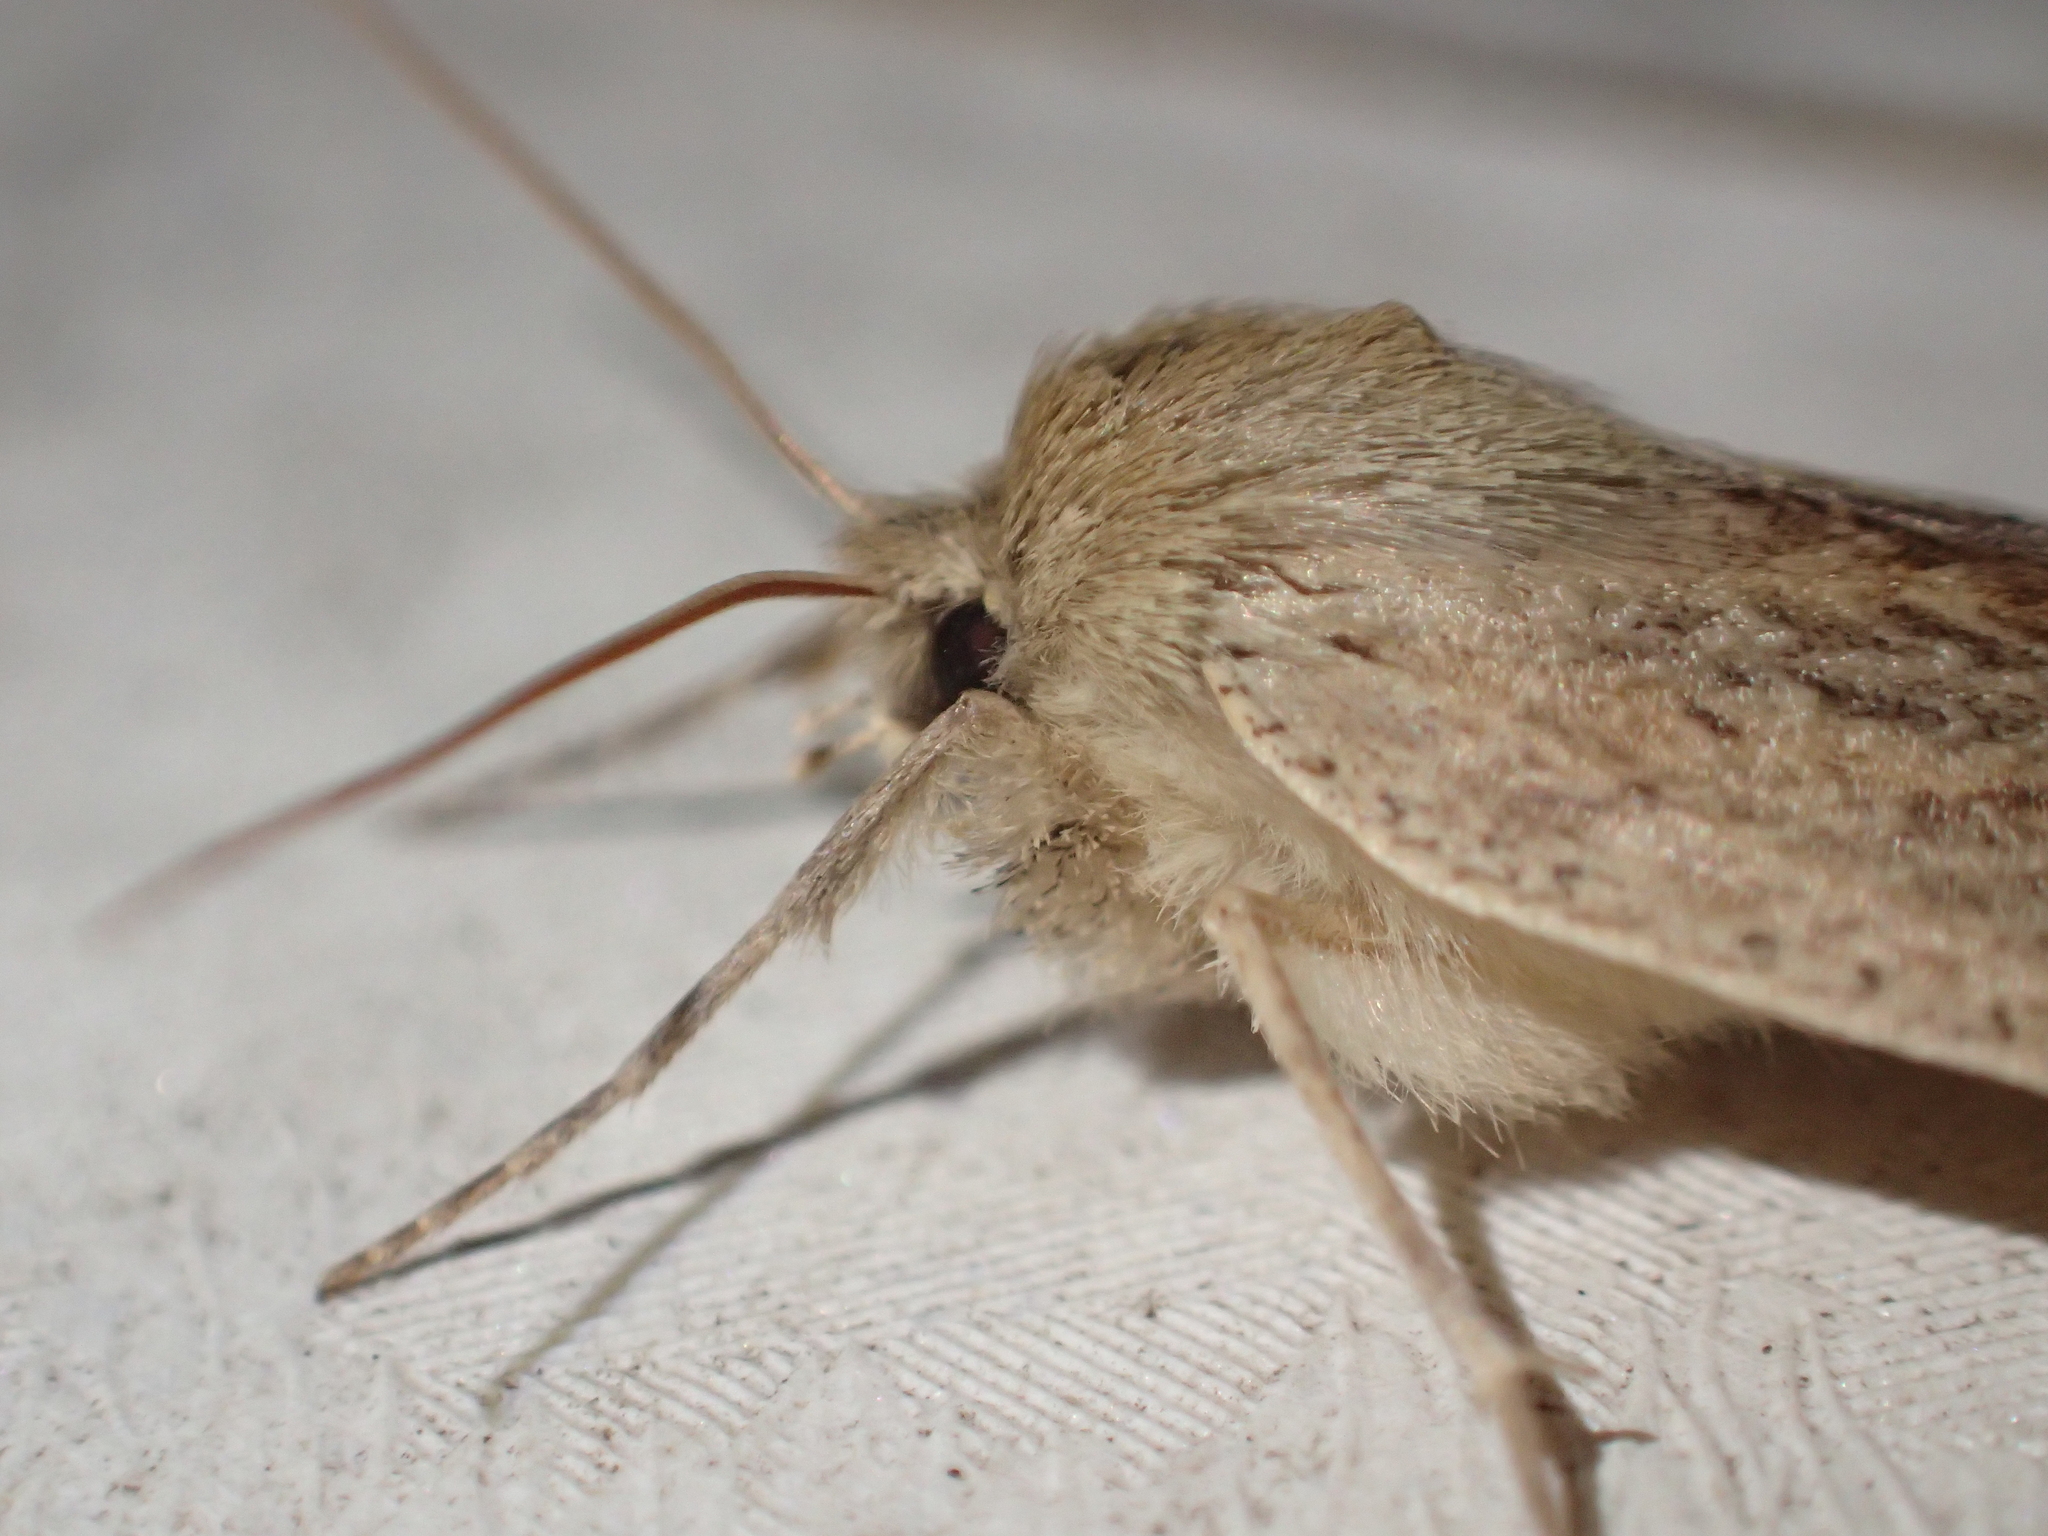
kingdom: Animalia
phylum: Arthropoda
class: Insecta
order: Lepidoptera
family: Geometridae
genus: Declana
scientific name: Declana leptomera
